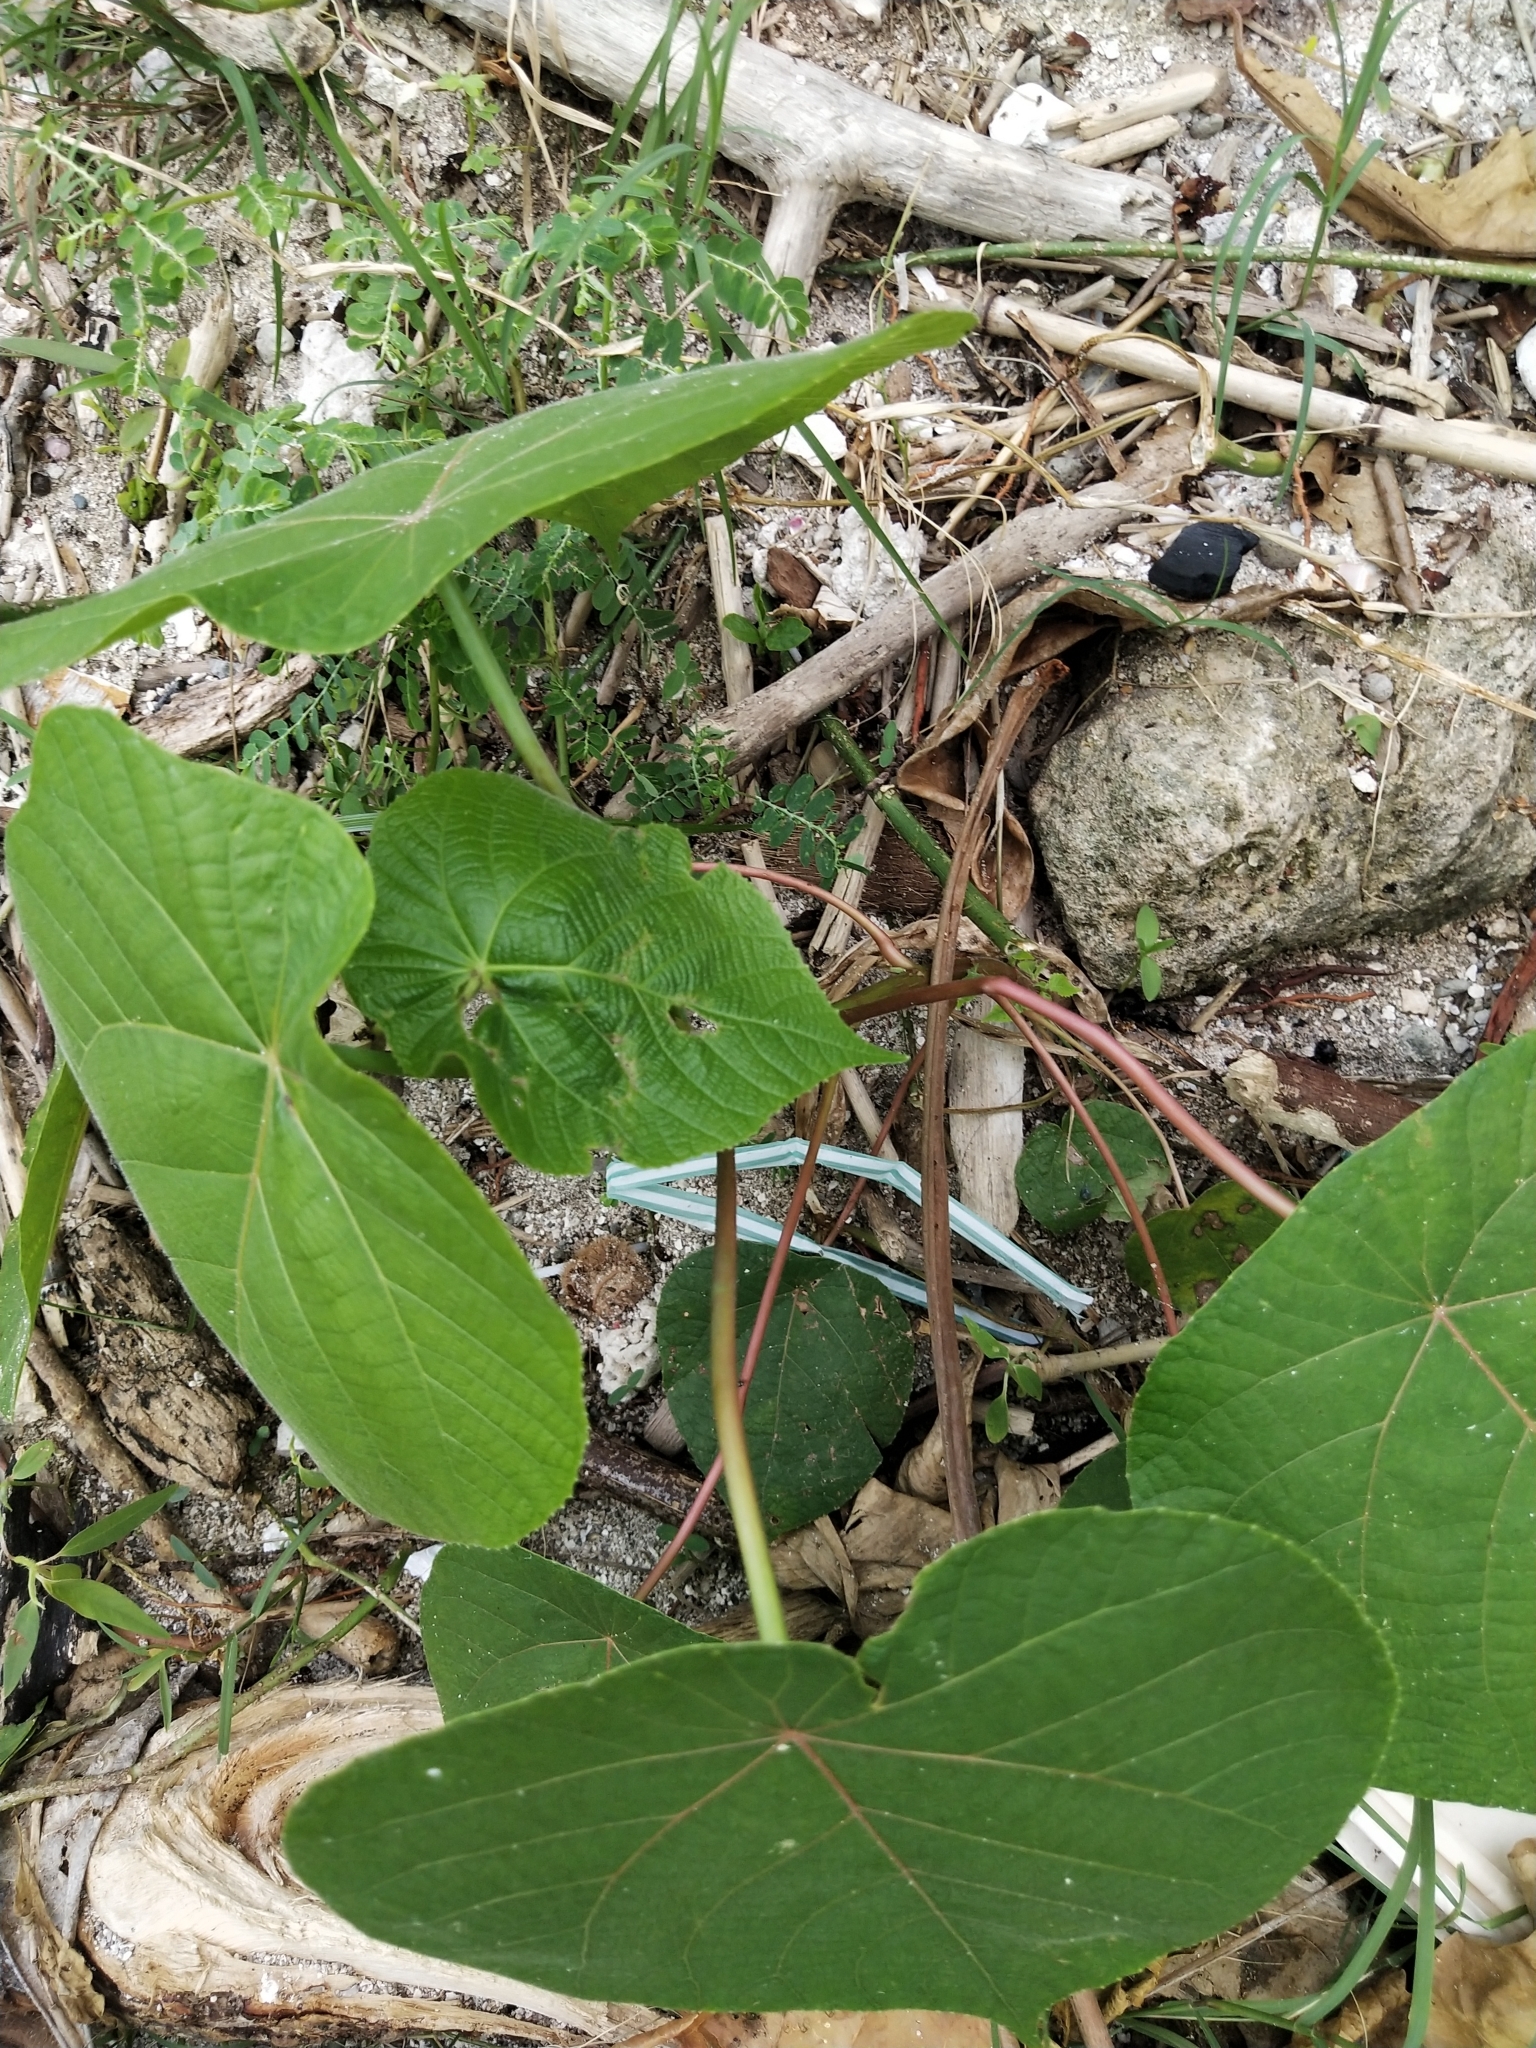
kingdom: Plantae
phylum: Tracheophyta
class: Magnoliopsida
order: Malpighiales
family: Euphorbiaceae
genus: Macaranga
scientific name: Macaranga tanarius
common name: Parasol leaf tree
